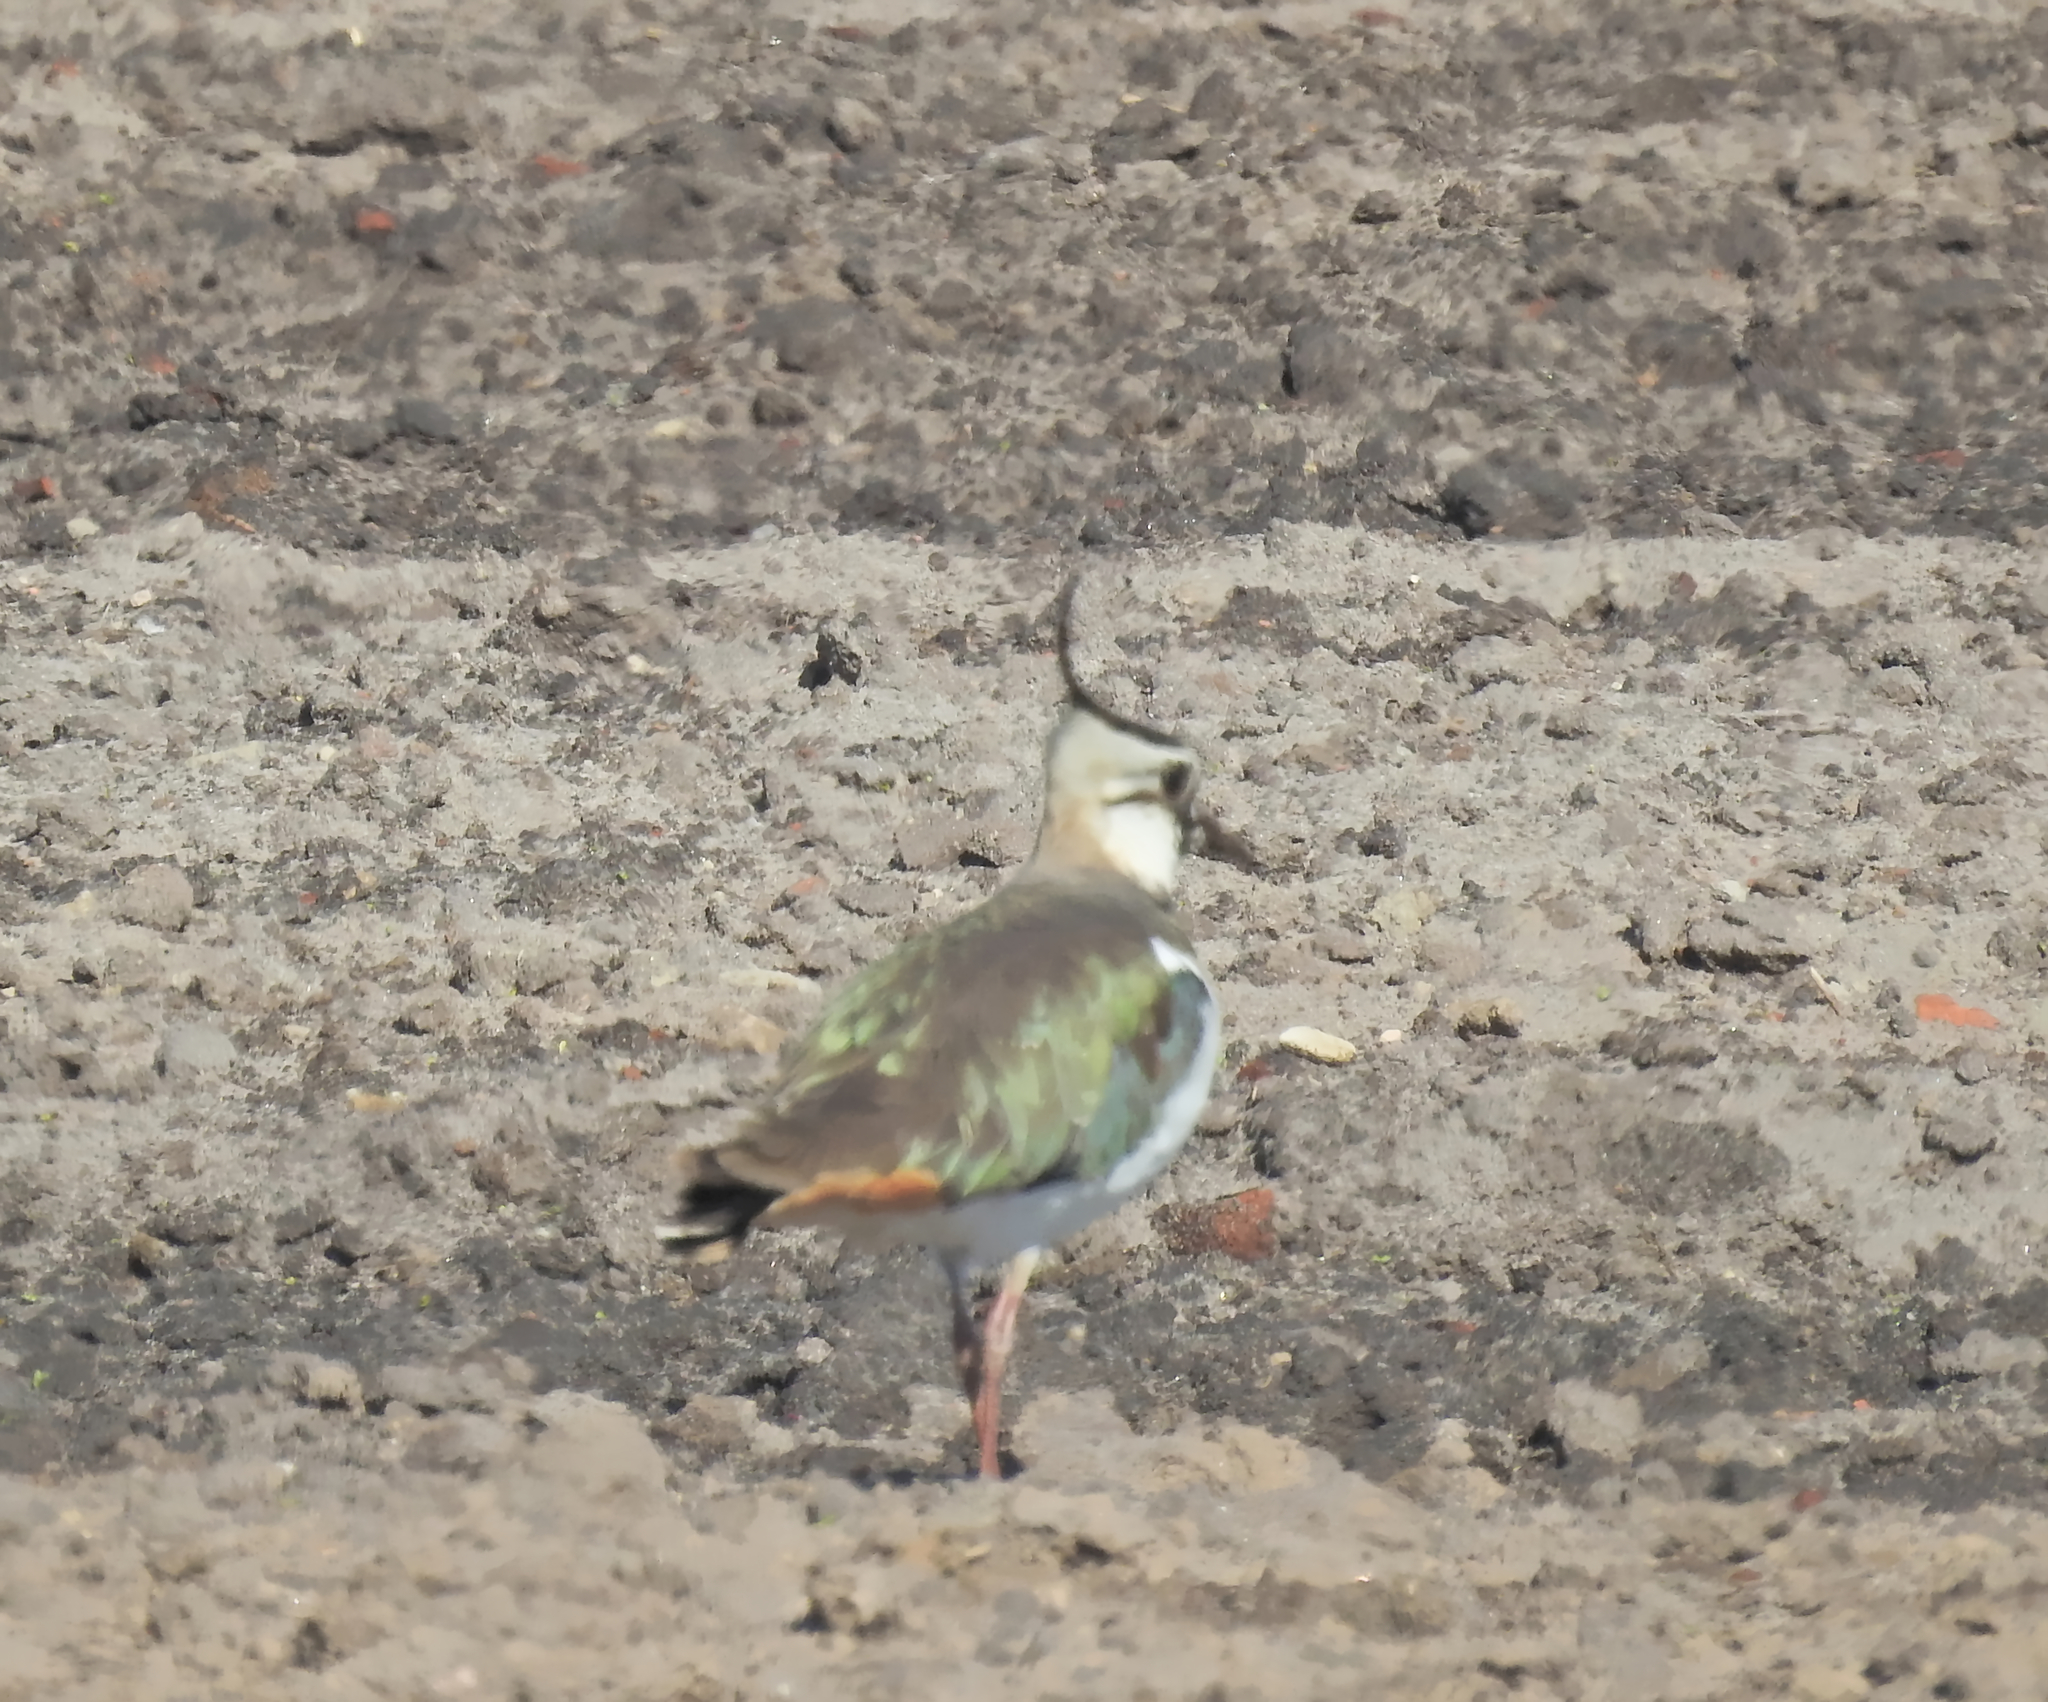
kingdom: Animalia
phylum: Chordata
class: Aves
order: Charadriiformes
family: Charadriidae
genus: Vanellus
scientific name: Vanellus vanellus
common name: Northern lapwing
